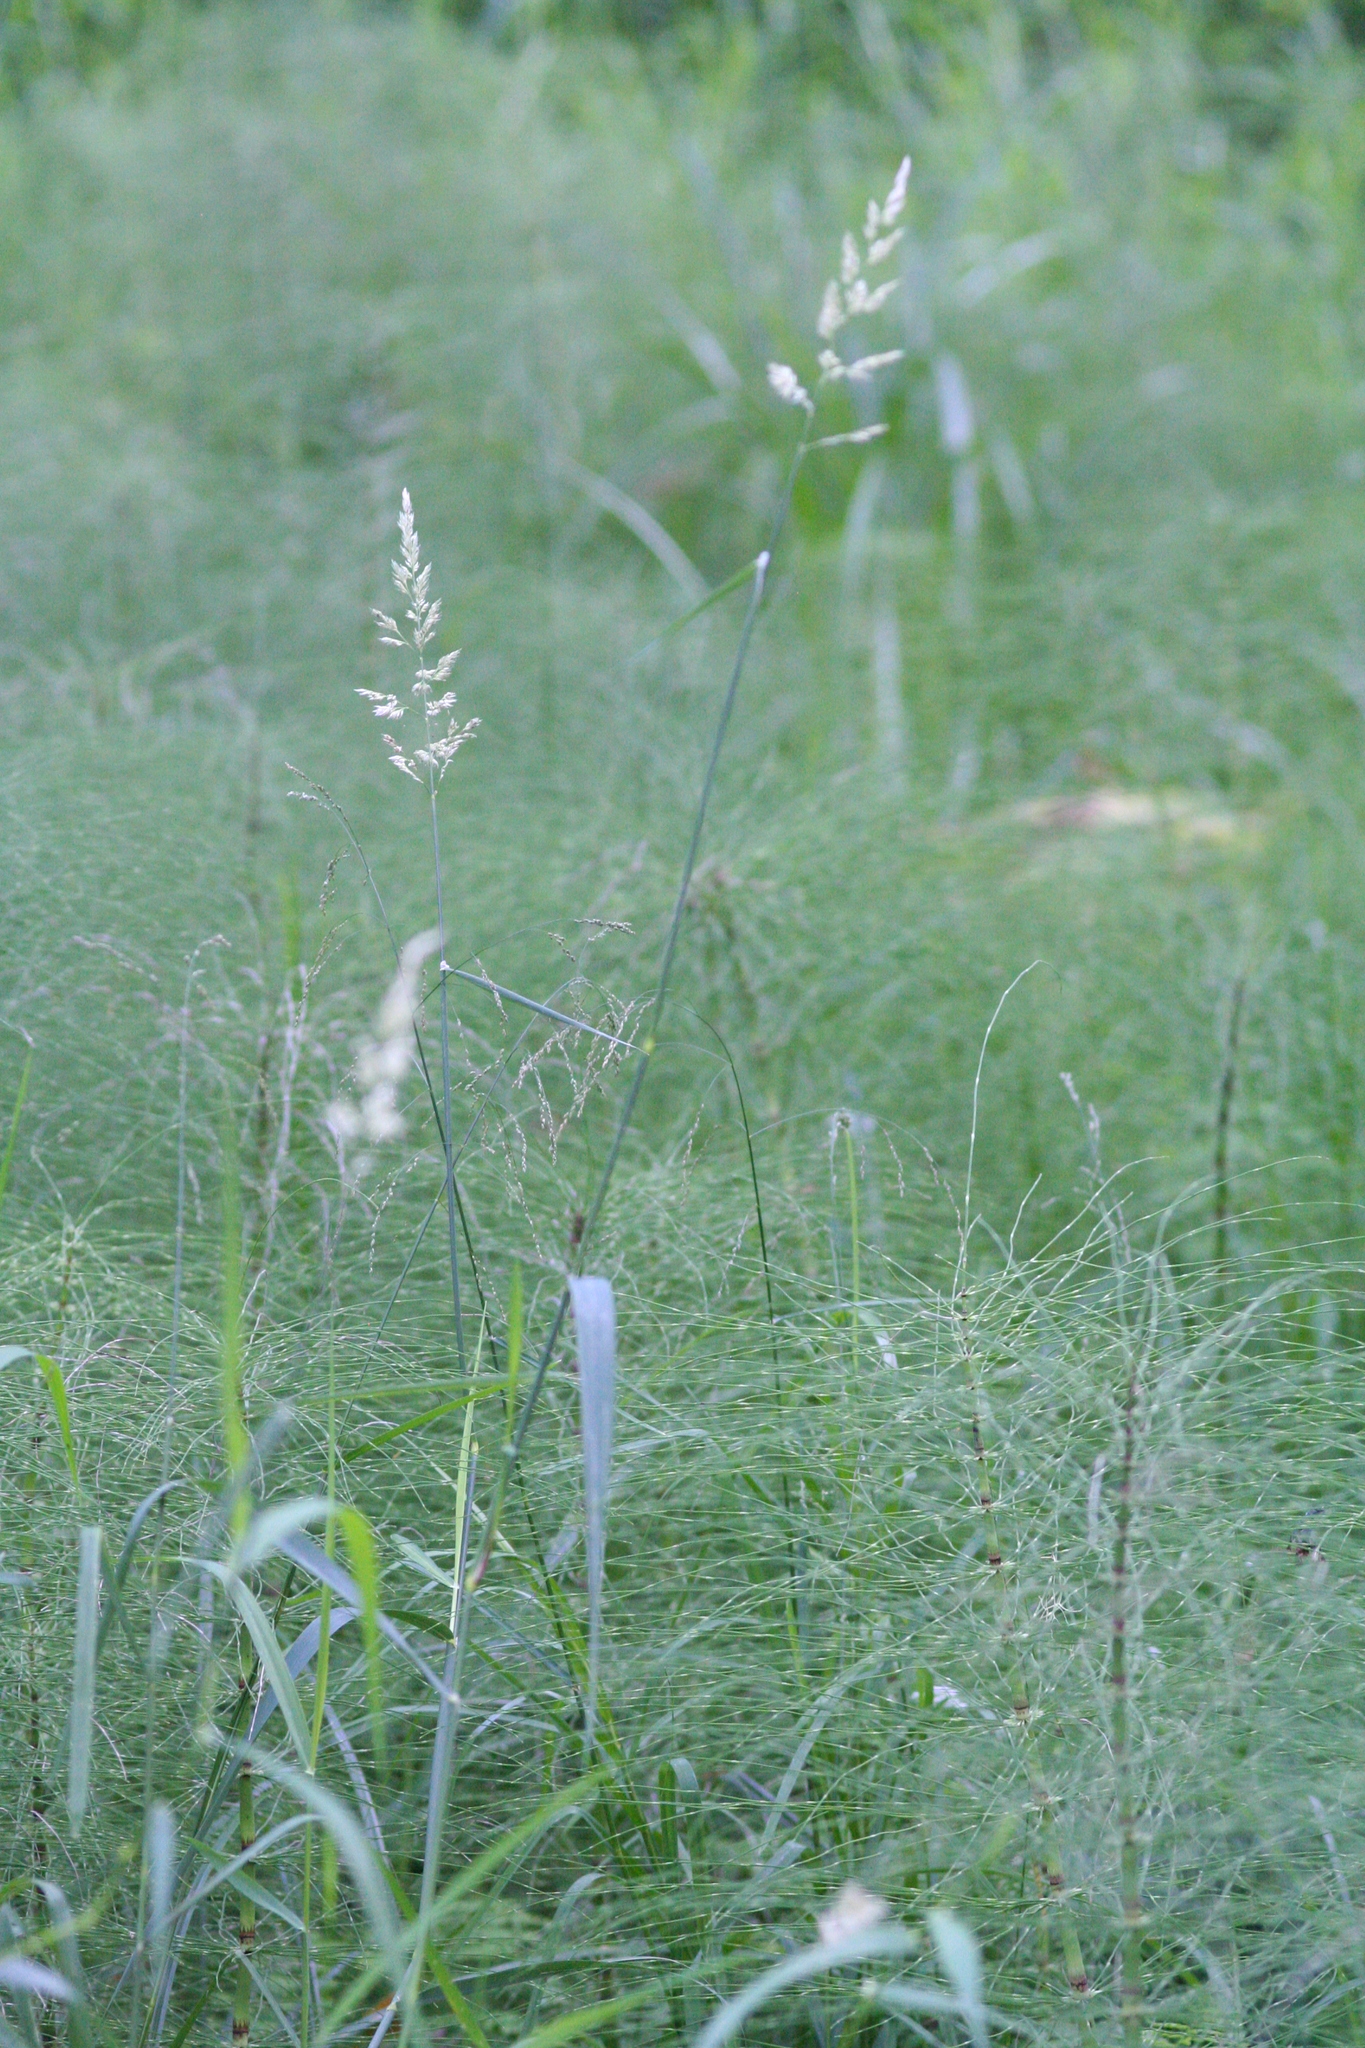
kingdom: Plantae
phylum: Tracheophyta
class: Liliopsida
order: Poales
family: Poaceae
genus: Phalaris
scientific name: Phalaris arundinacea
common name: Reed canary-grass
